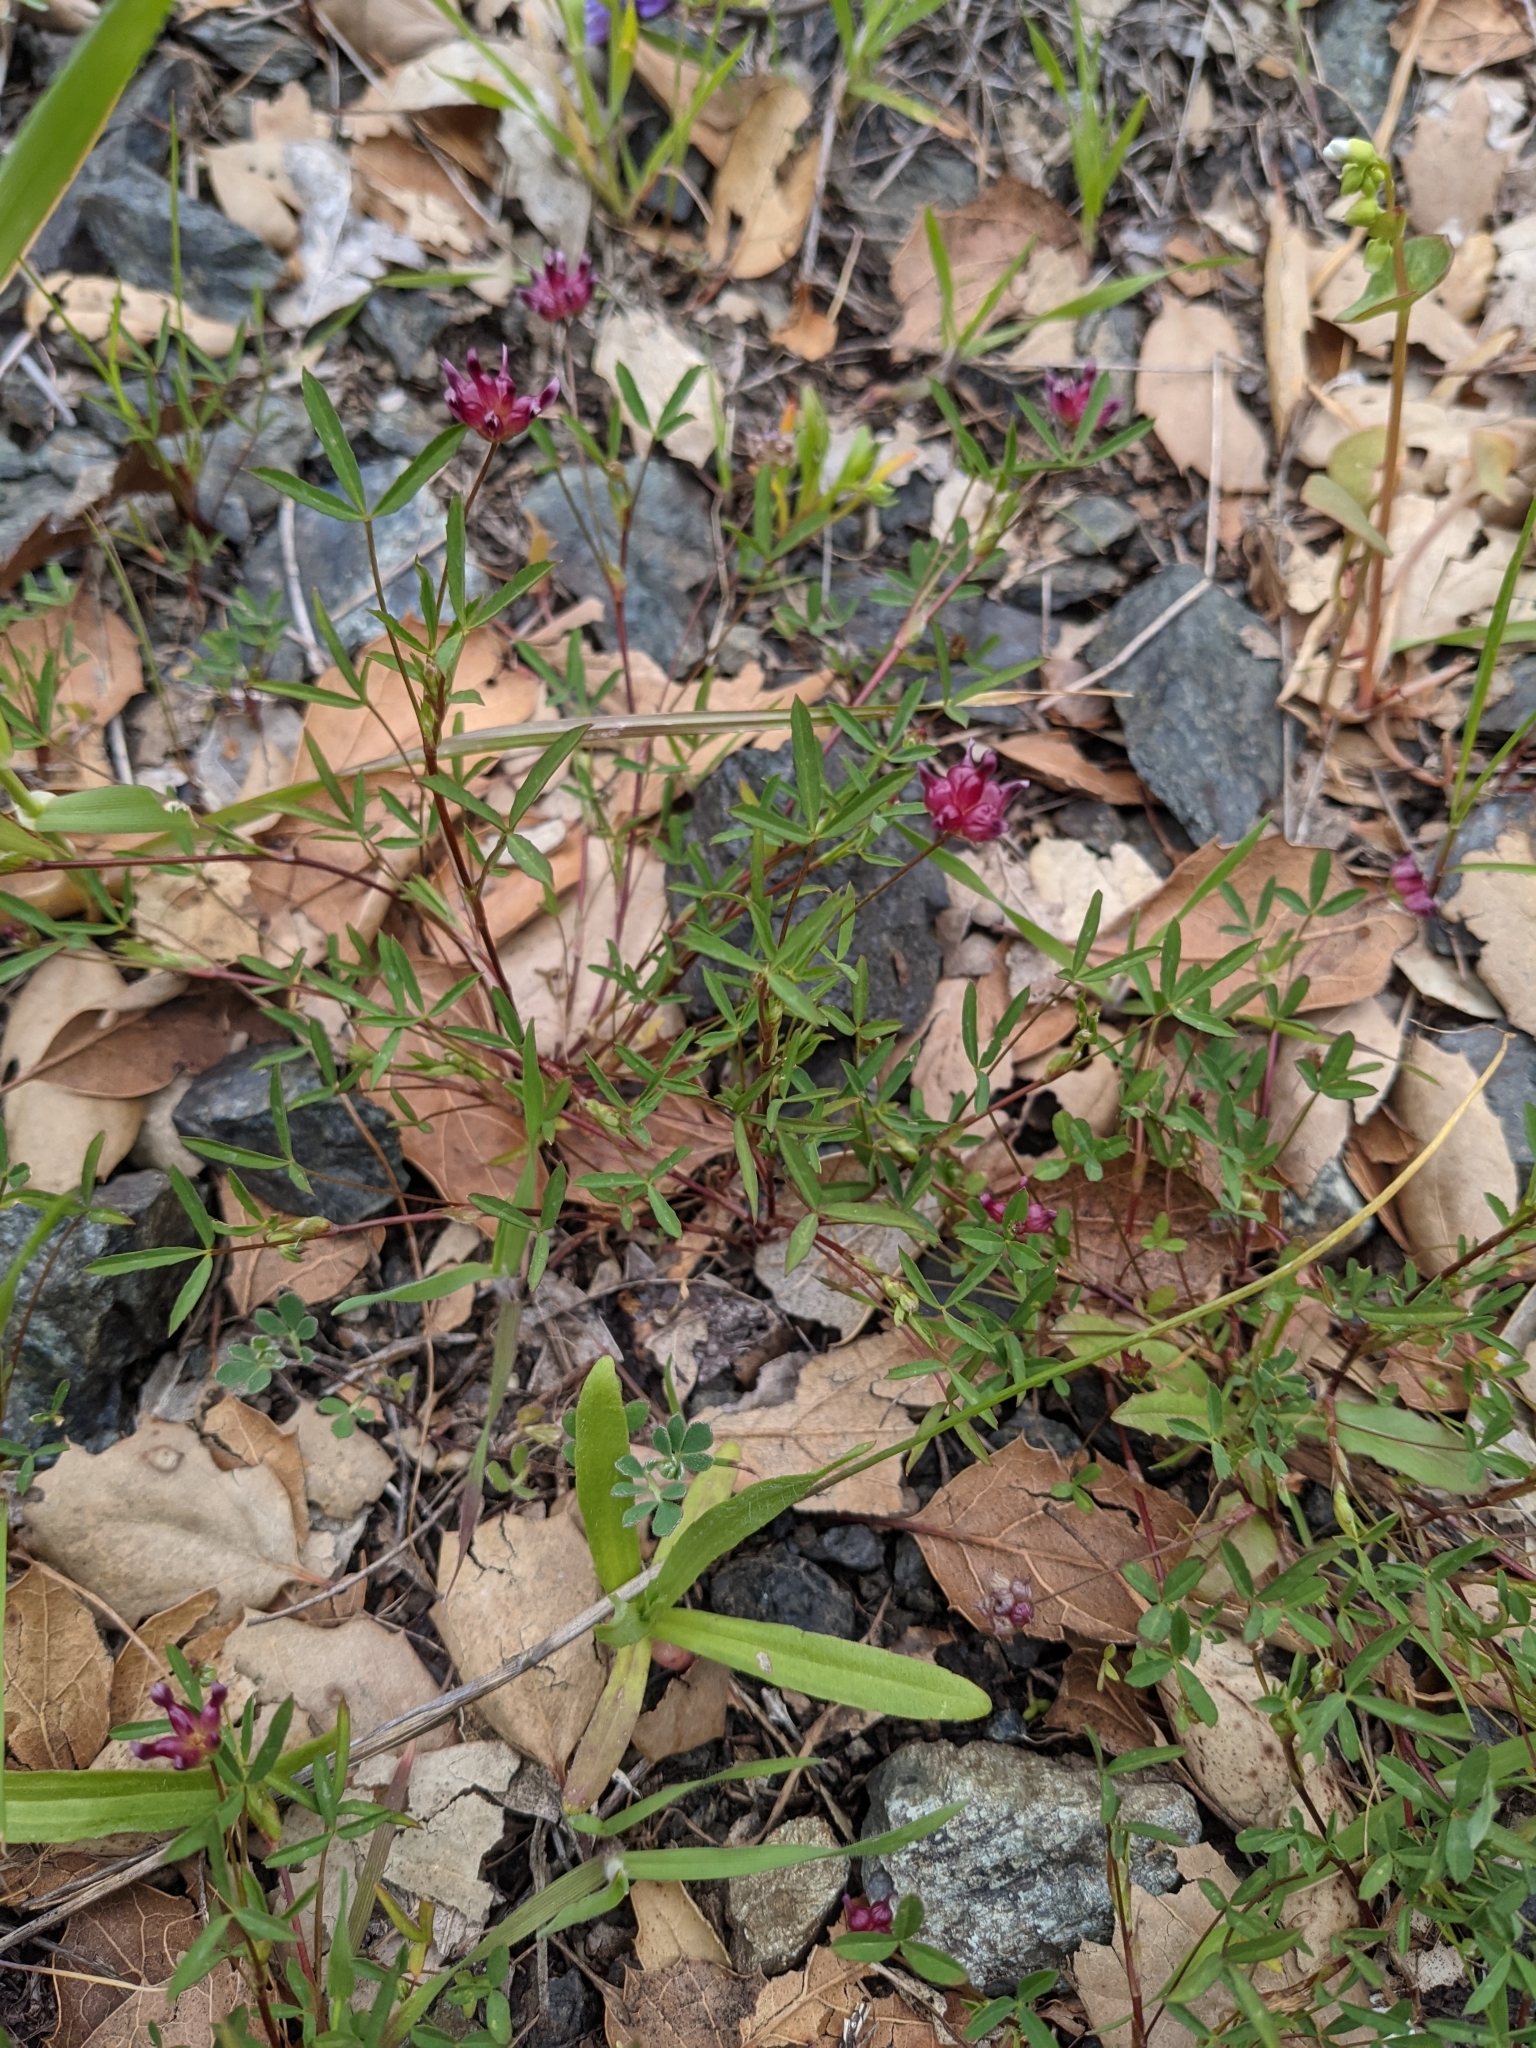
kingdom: Plantae
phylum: Tracheophyta
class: Magnoliopsida
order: Fabales
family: Fabaceae
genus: Trifolium
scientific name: Trifolium depauperatum
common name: Poverty clover
